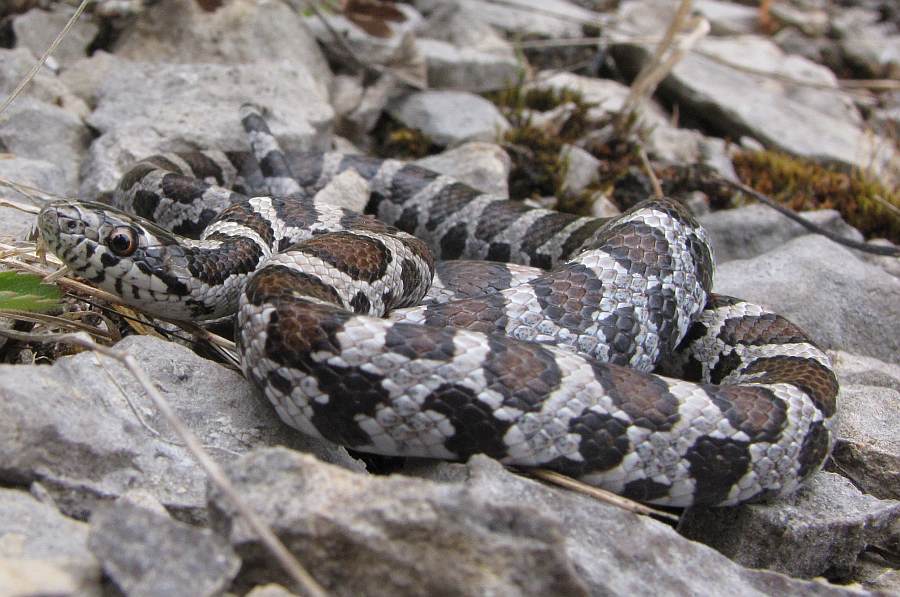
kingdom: Animalia
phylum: Chordata
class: Squamata
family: Colubridae
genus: Lampropeltis
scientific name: Lampropeltis triangulum
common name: Eastern milksnake
